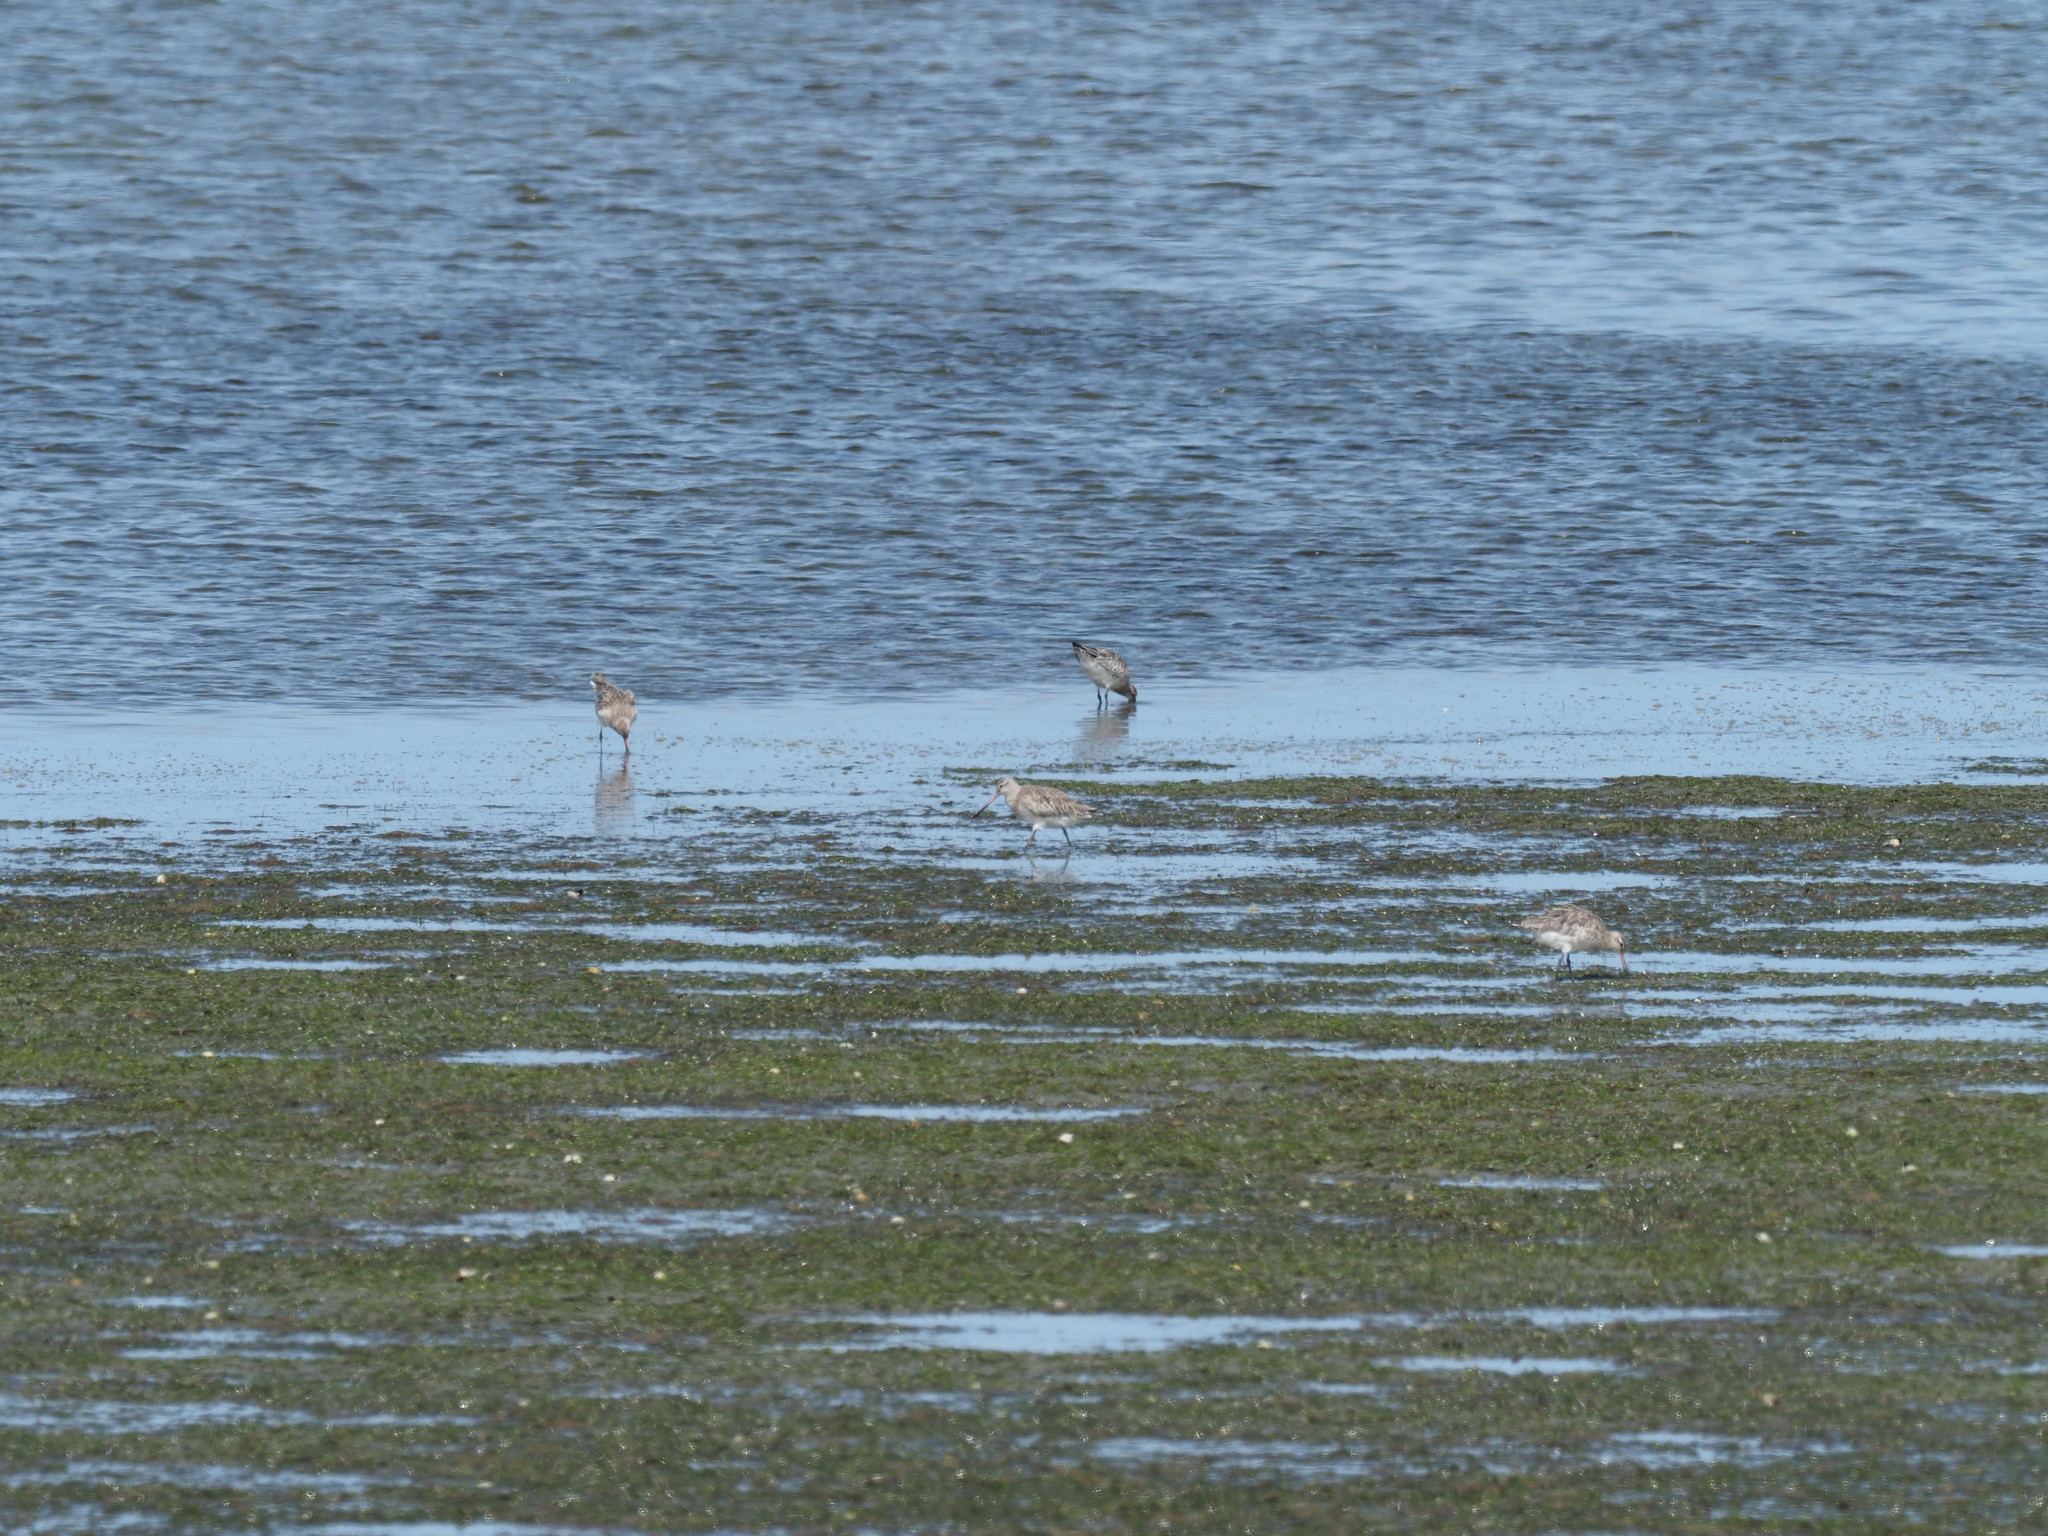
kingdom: Animalia
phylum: Chordata
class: Aves
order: Charadriiformes
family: Scolopacidae
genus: Limosa
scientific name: Limosa lapponica
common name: Bar-tailed godwit
